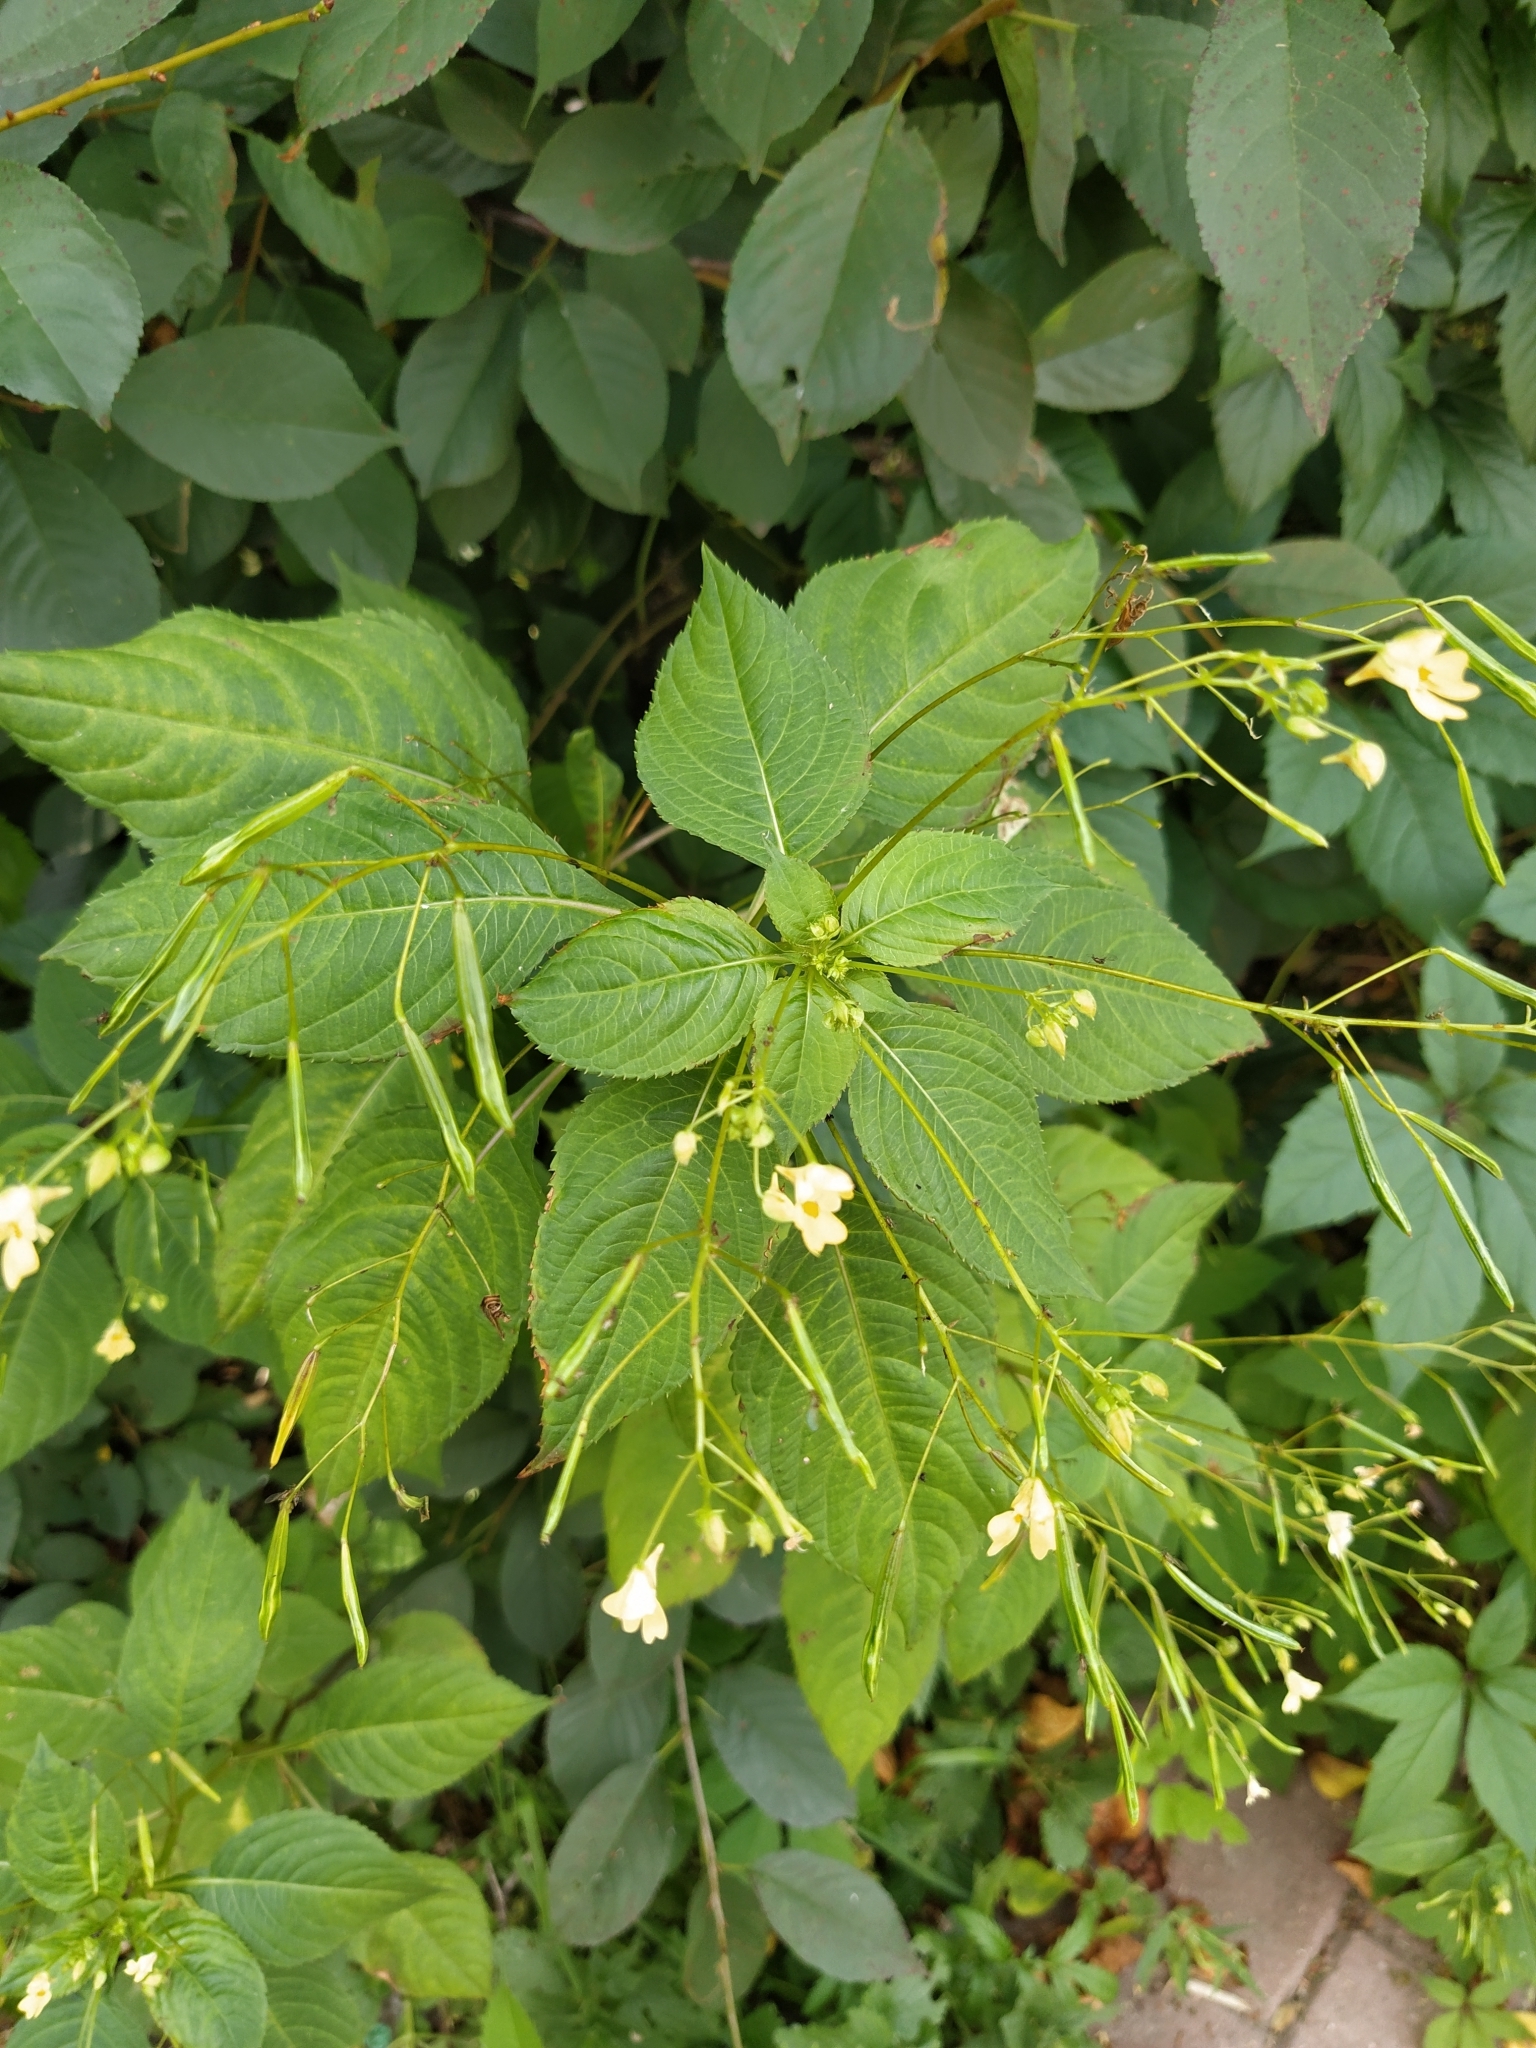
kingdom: Plantae
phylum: Tracheophyta
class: Magnoliopsida
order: Ericales
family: Balsaminaceae
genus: Impatiens
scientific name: Impatiens parviflora
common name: Small balsam
